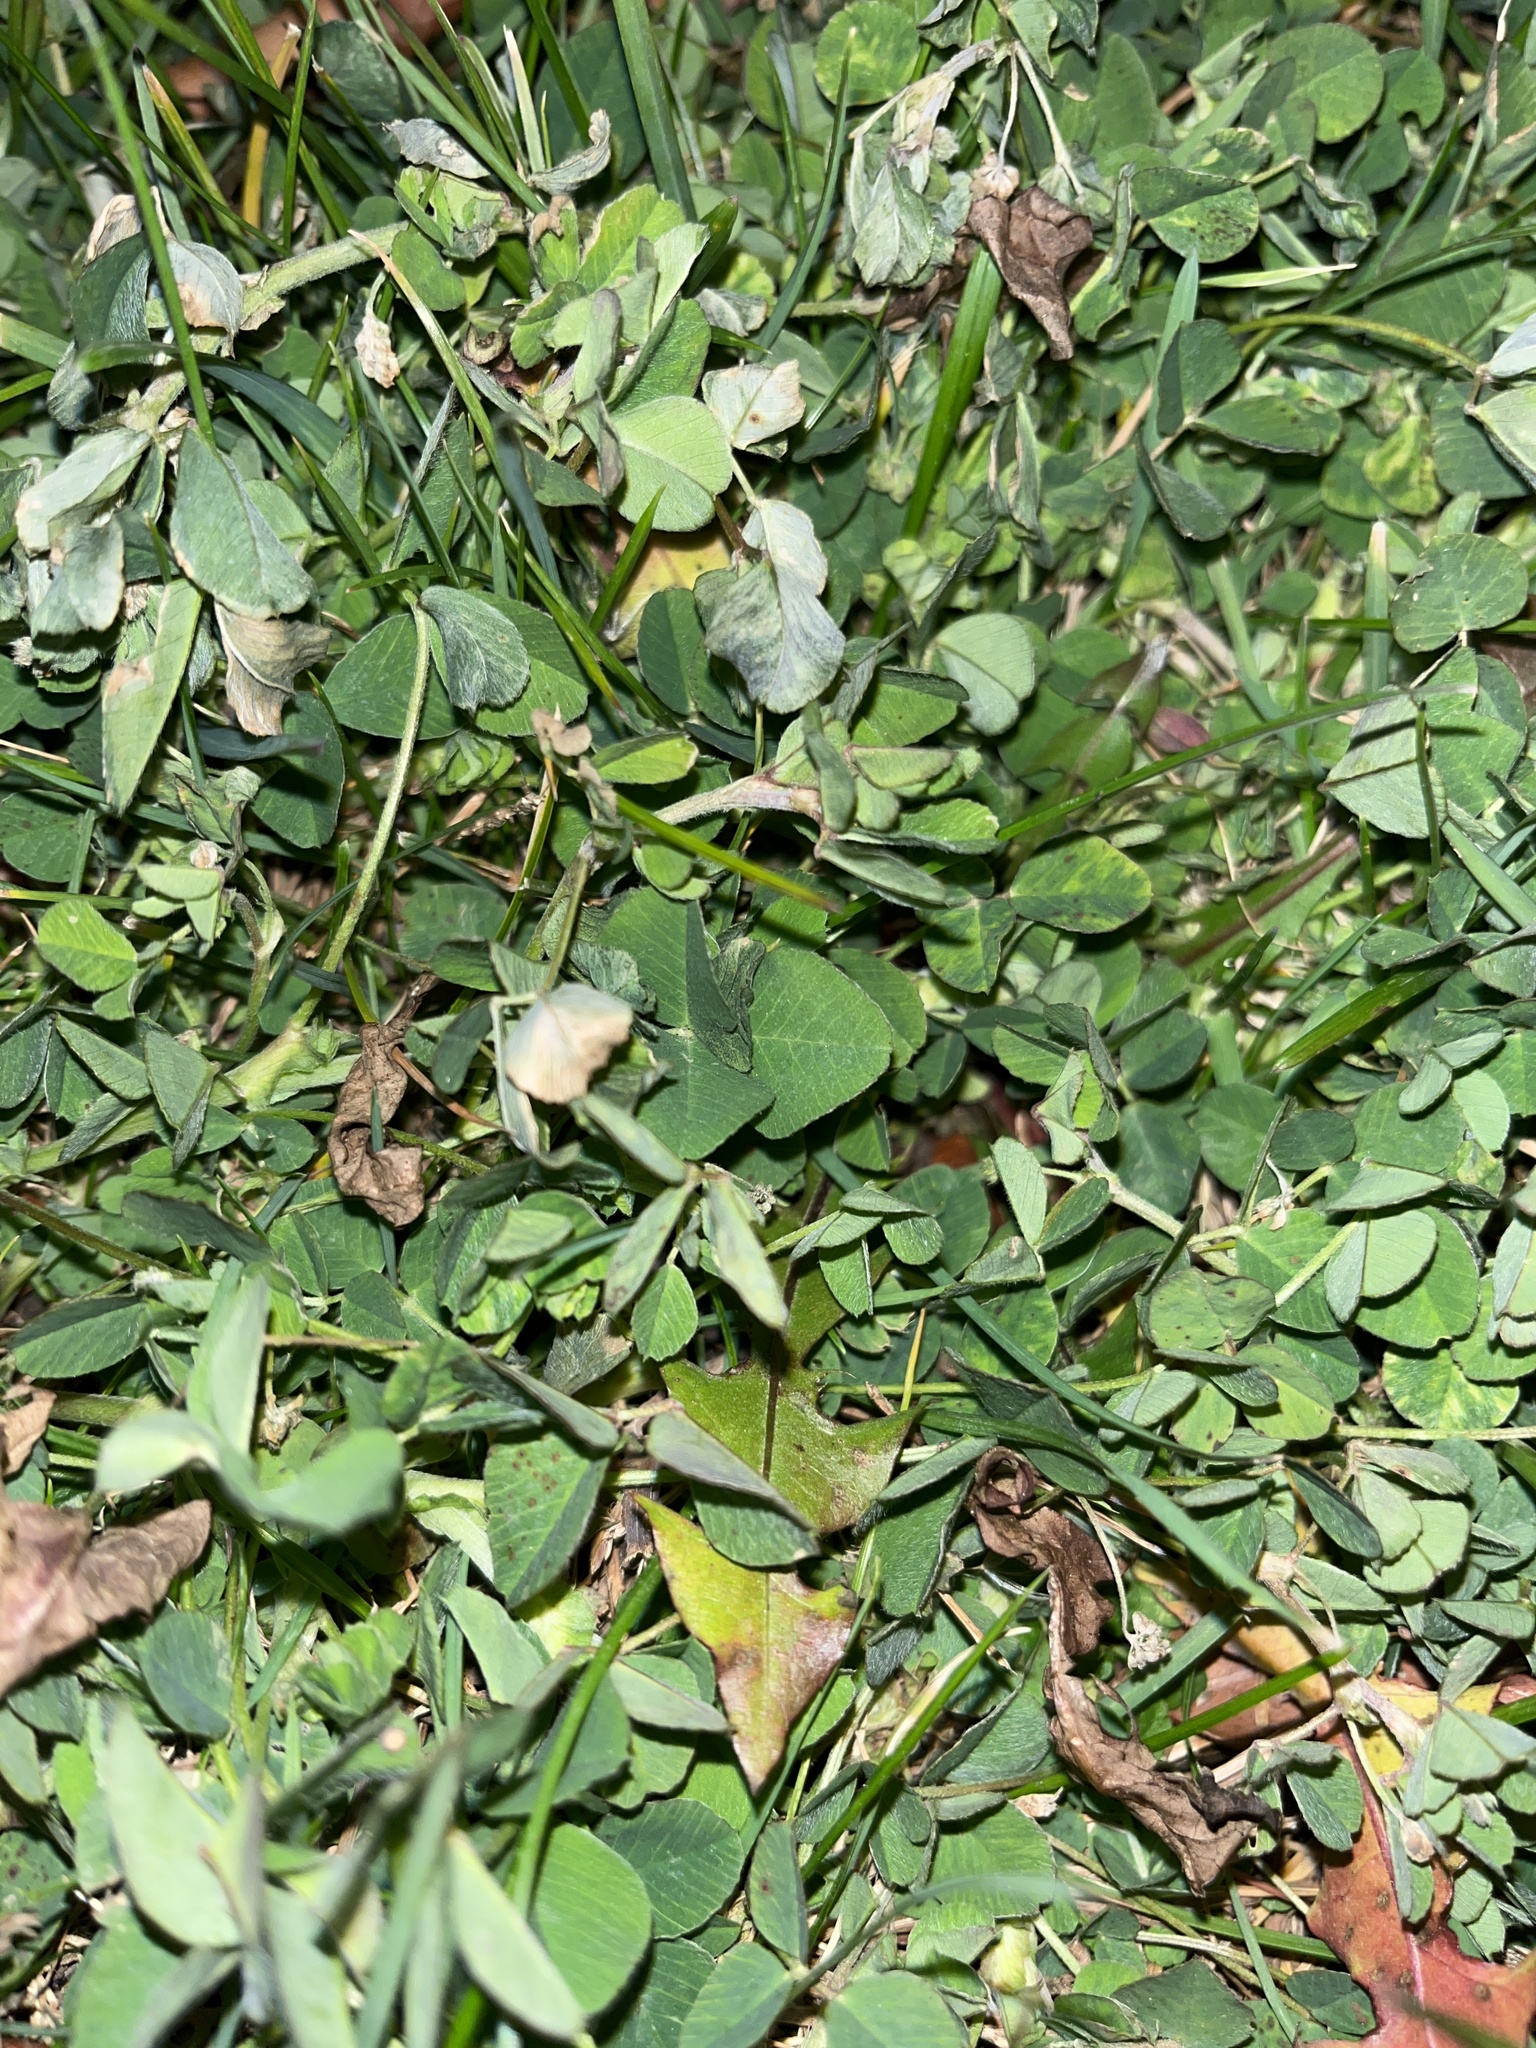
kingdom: Plantae
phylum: Tracheophyta
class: Magnoliopsida
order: Fabales
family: Fabaceae
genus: Trifolium
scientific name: Trifolium repens
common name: White clover
